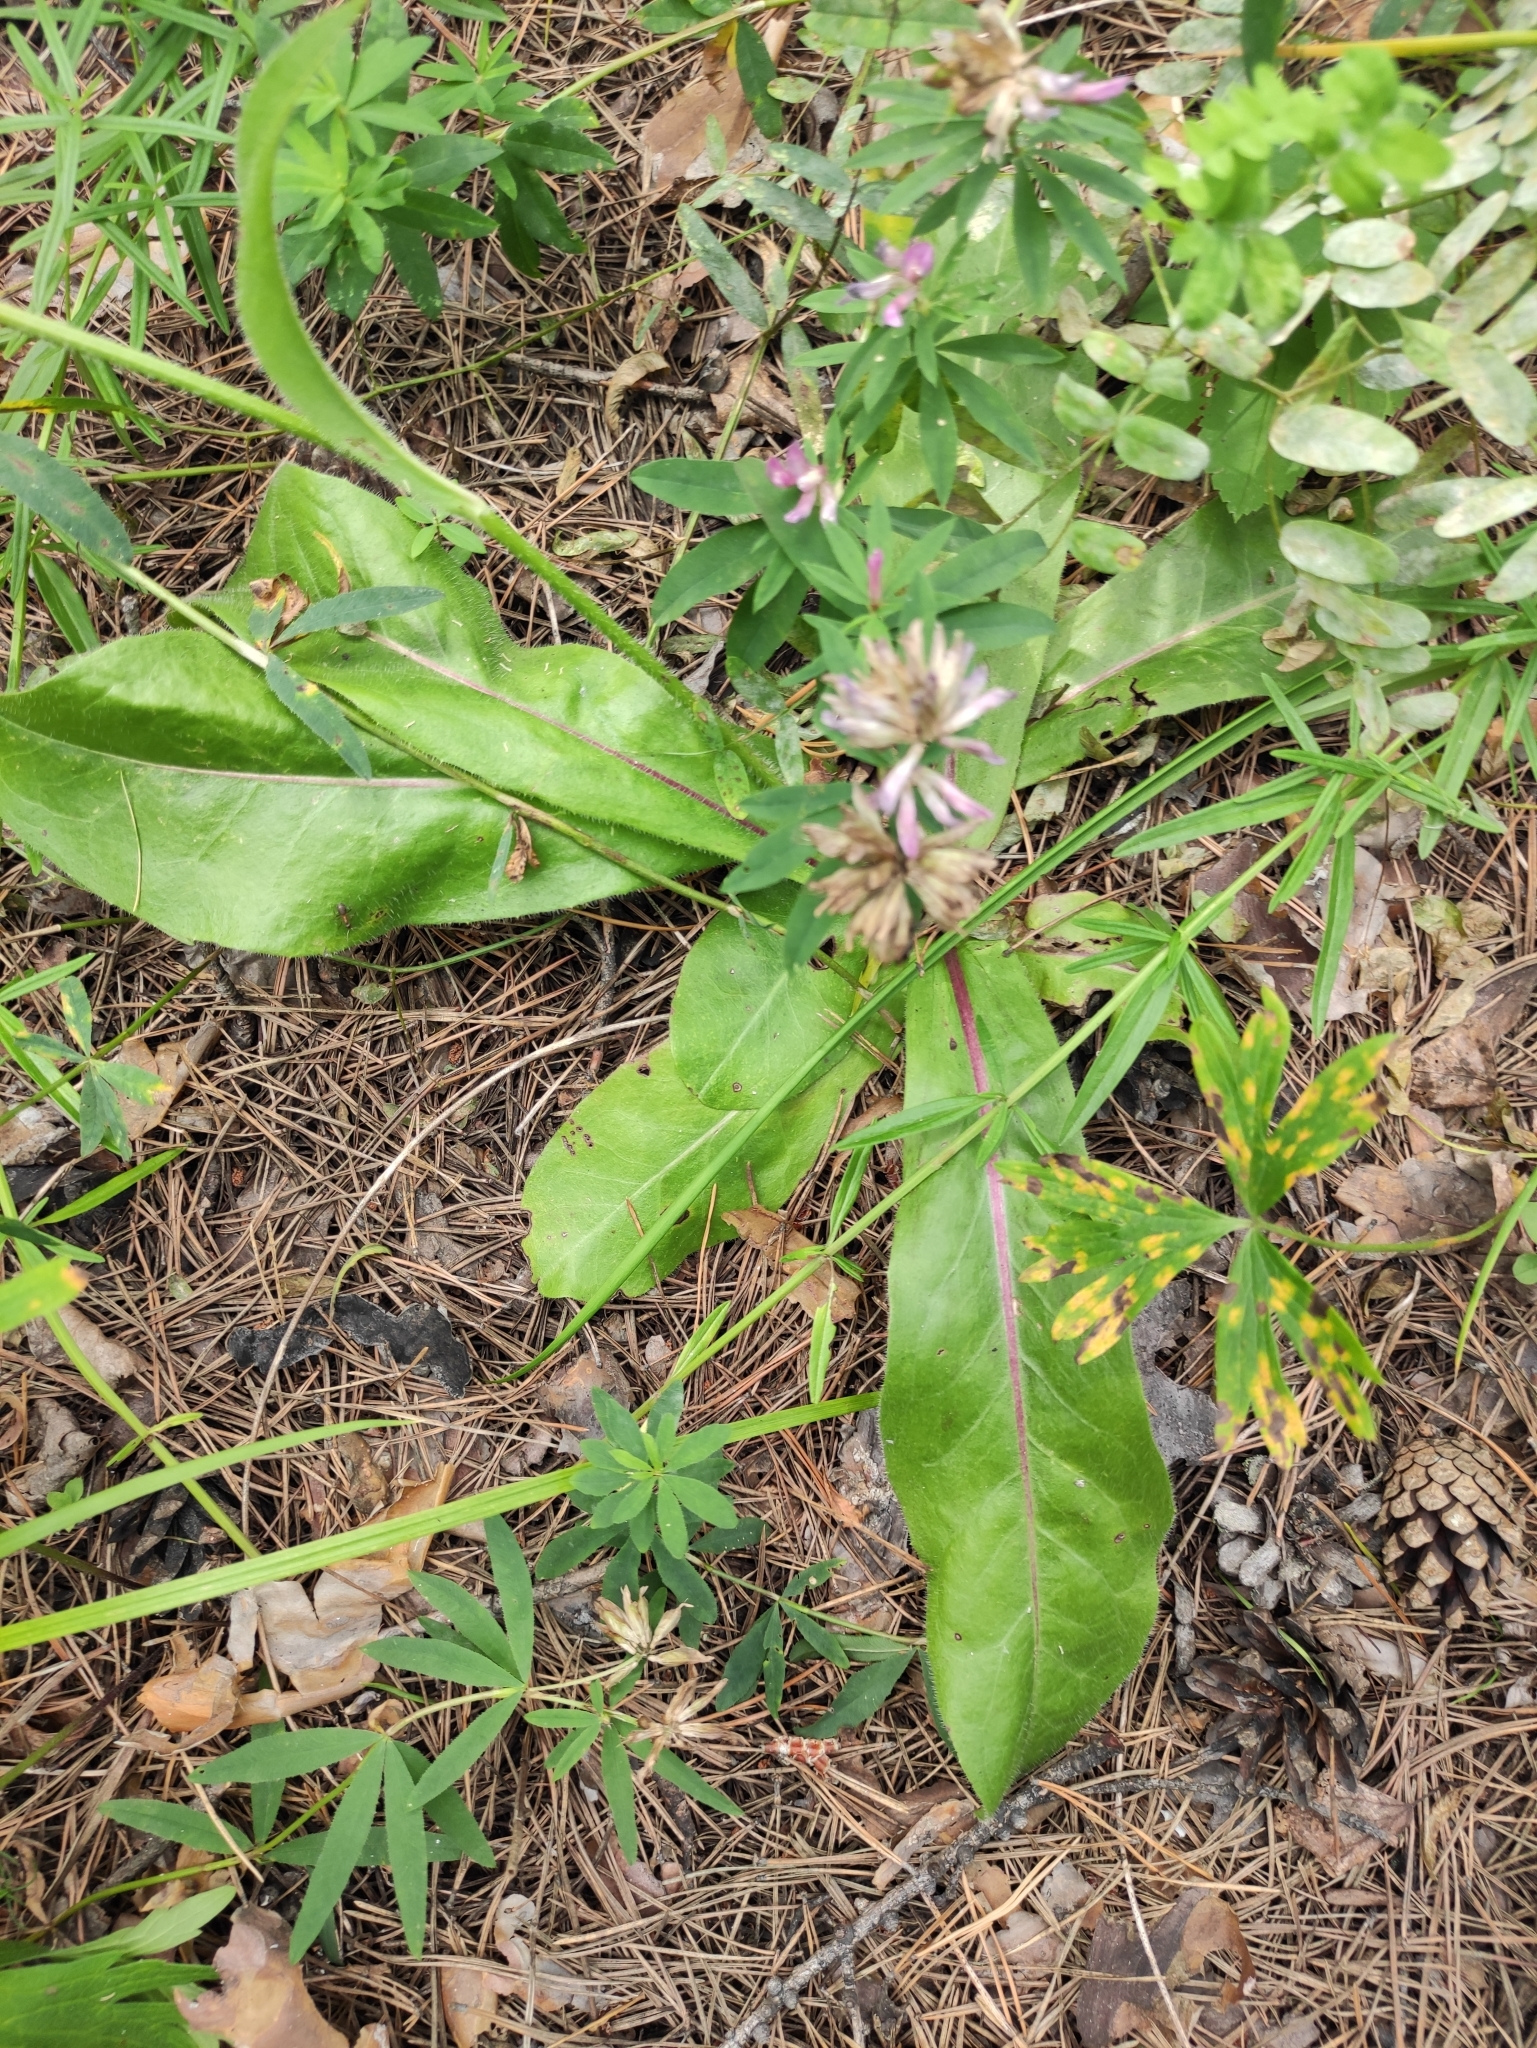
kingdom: Plantae
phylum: Tracheophyta
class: Magnoliopsida
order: Asterales
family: Asteraceae
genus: Trommsdorffia
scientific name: Trommsdorffia maculata
